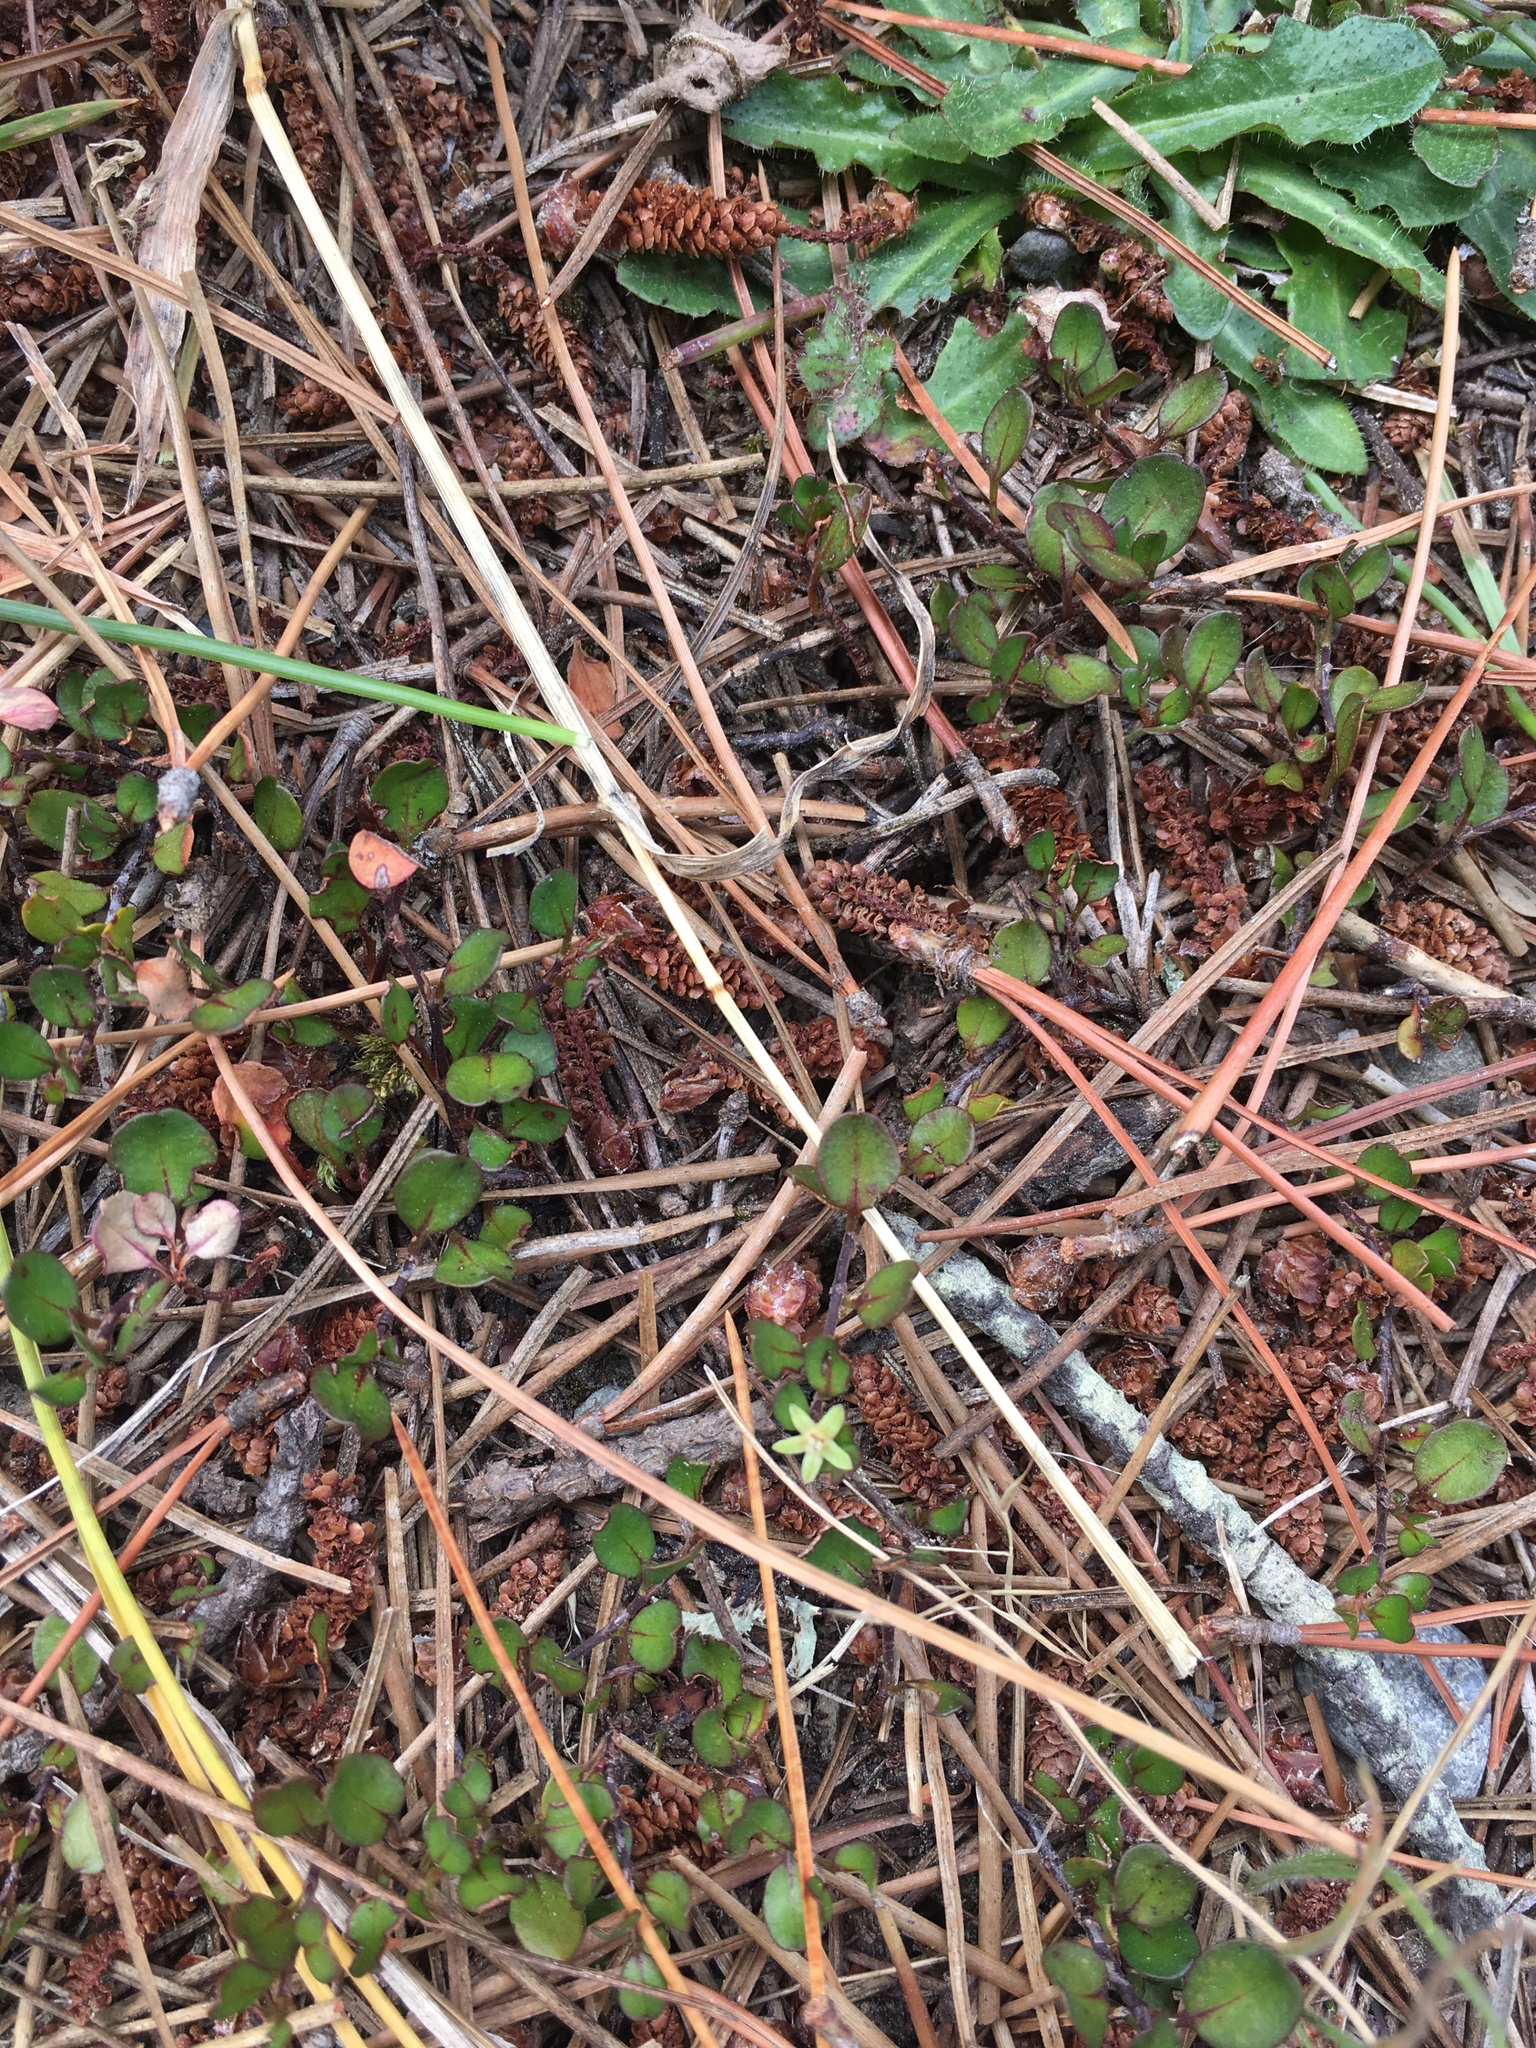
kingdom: Plantae
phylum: Tracheophyta
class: Magnoliopsida
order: Caryophyllales
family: Polygonaceae
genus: Muehlenbeckia
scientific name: Muehlenbeckia axillaris
